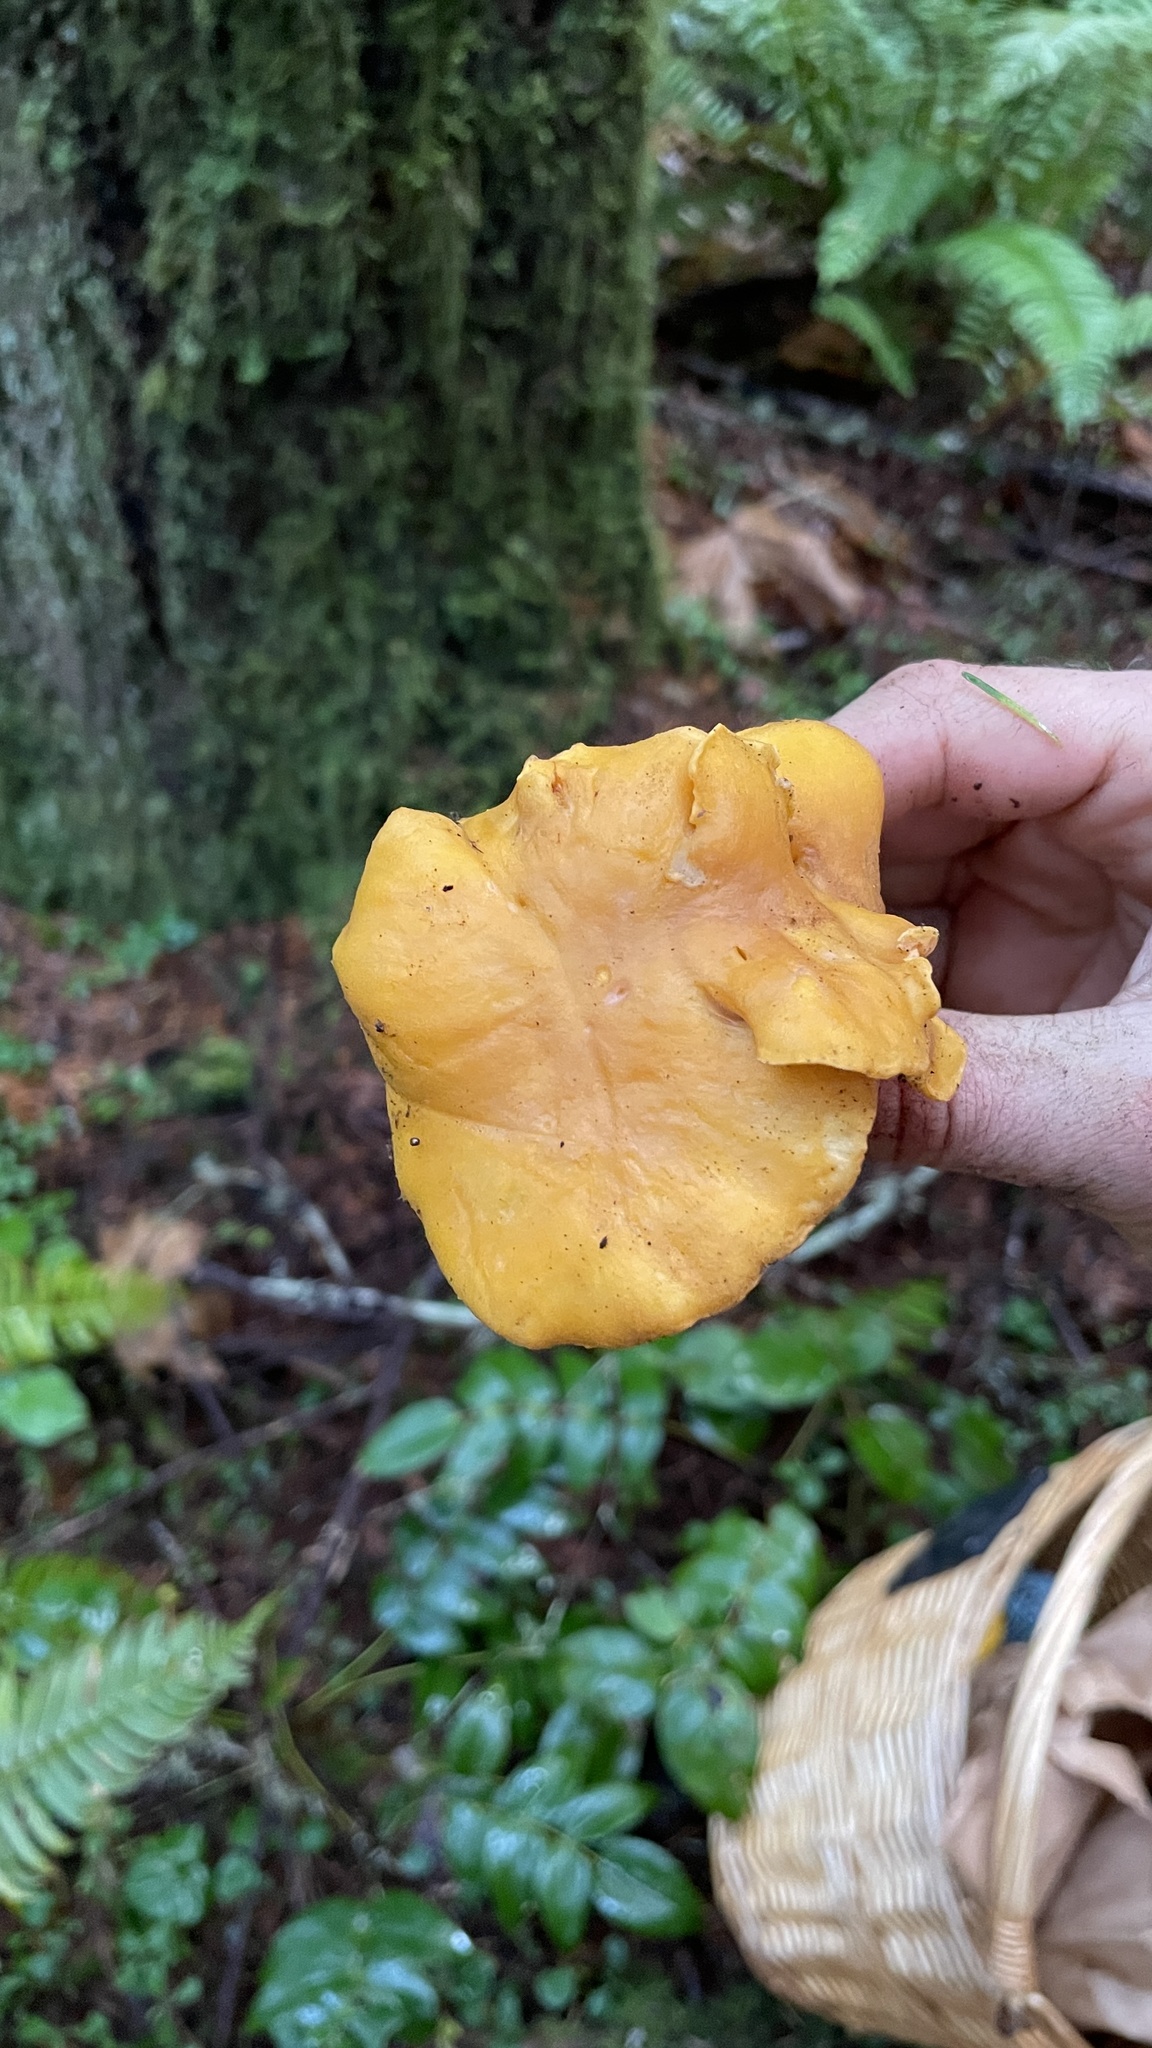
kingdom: Fungi
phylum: Basidiomycota
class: Agaricomycetes
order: Cantharellales
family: Hydnaceae
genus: Cantharellus
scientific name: Cantharellus formosus
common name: Pacific golden chanterelle
